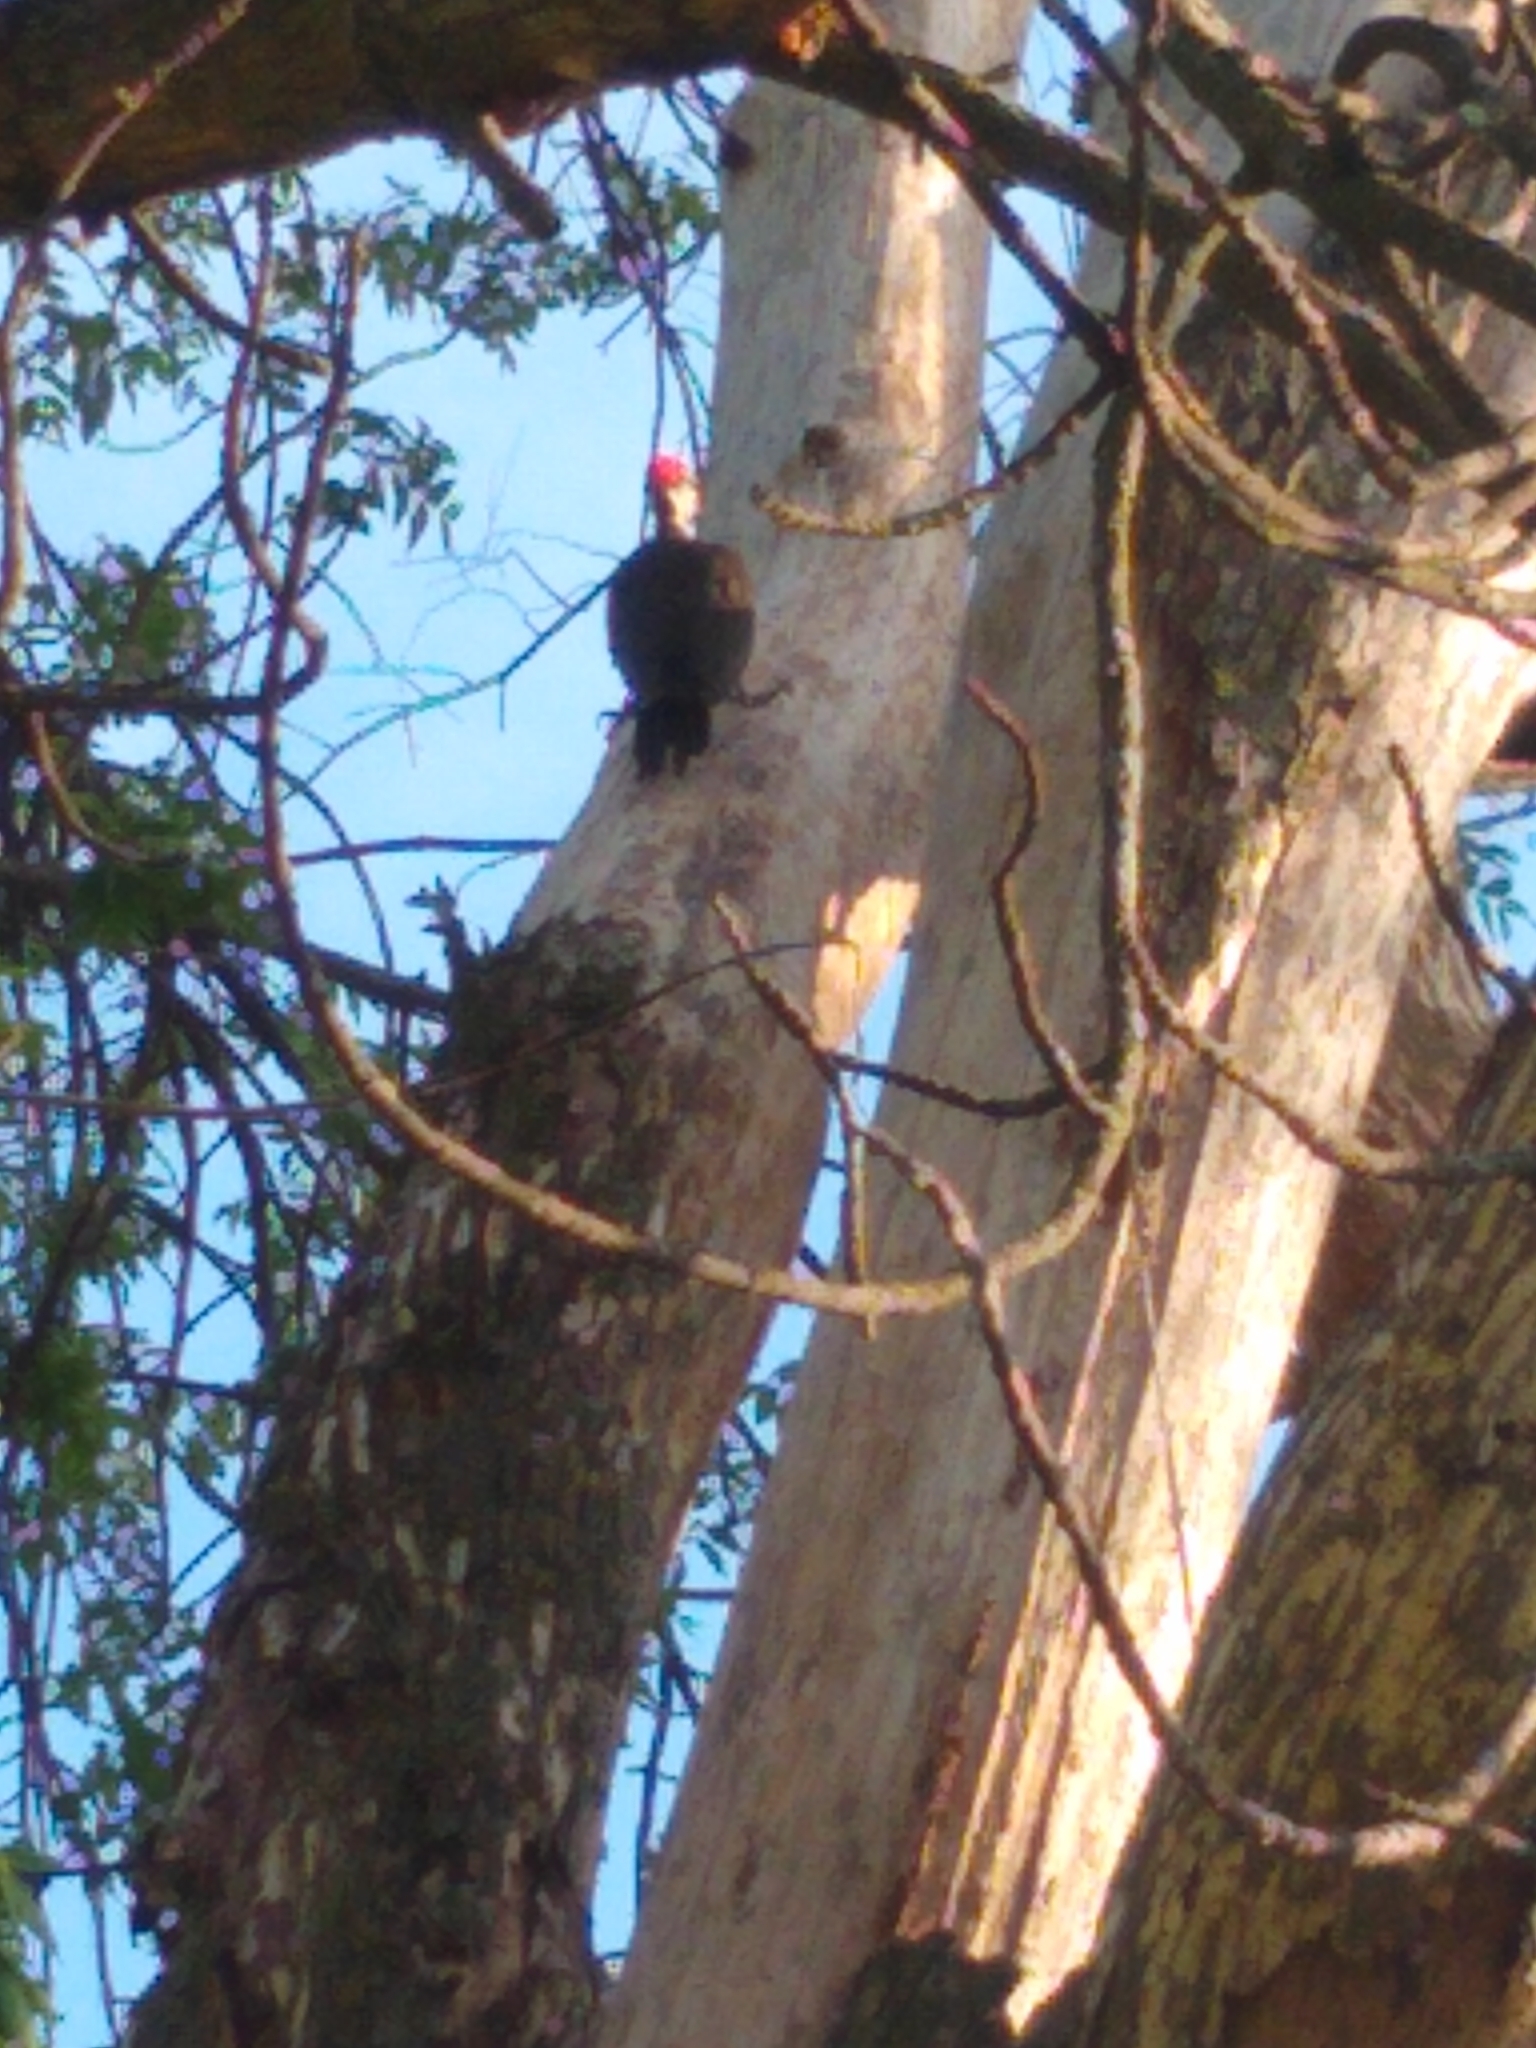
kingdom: Animalia
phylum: Chordata
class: Aves
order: Piciformes
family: Picidae
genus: Dryocopus
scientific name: Dryocopus pileatus
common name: Pileated woodpecker
